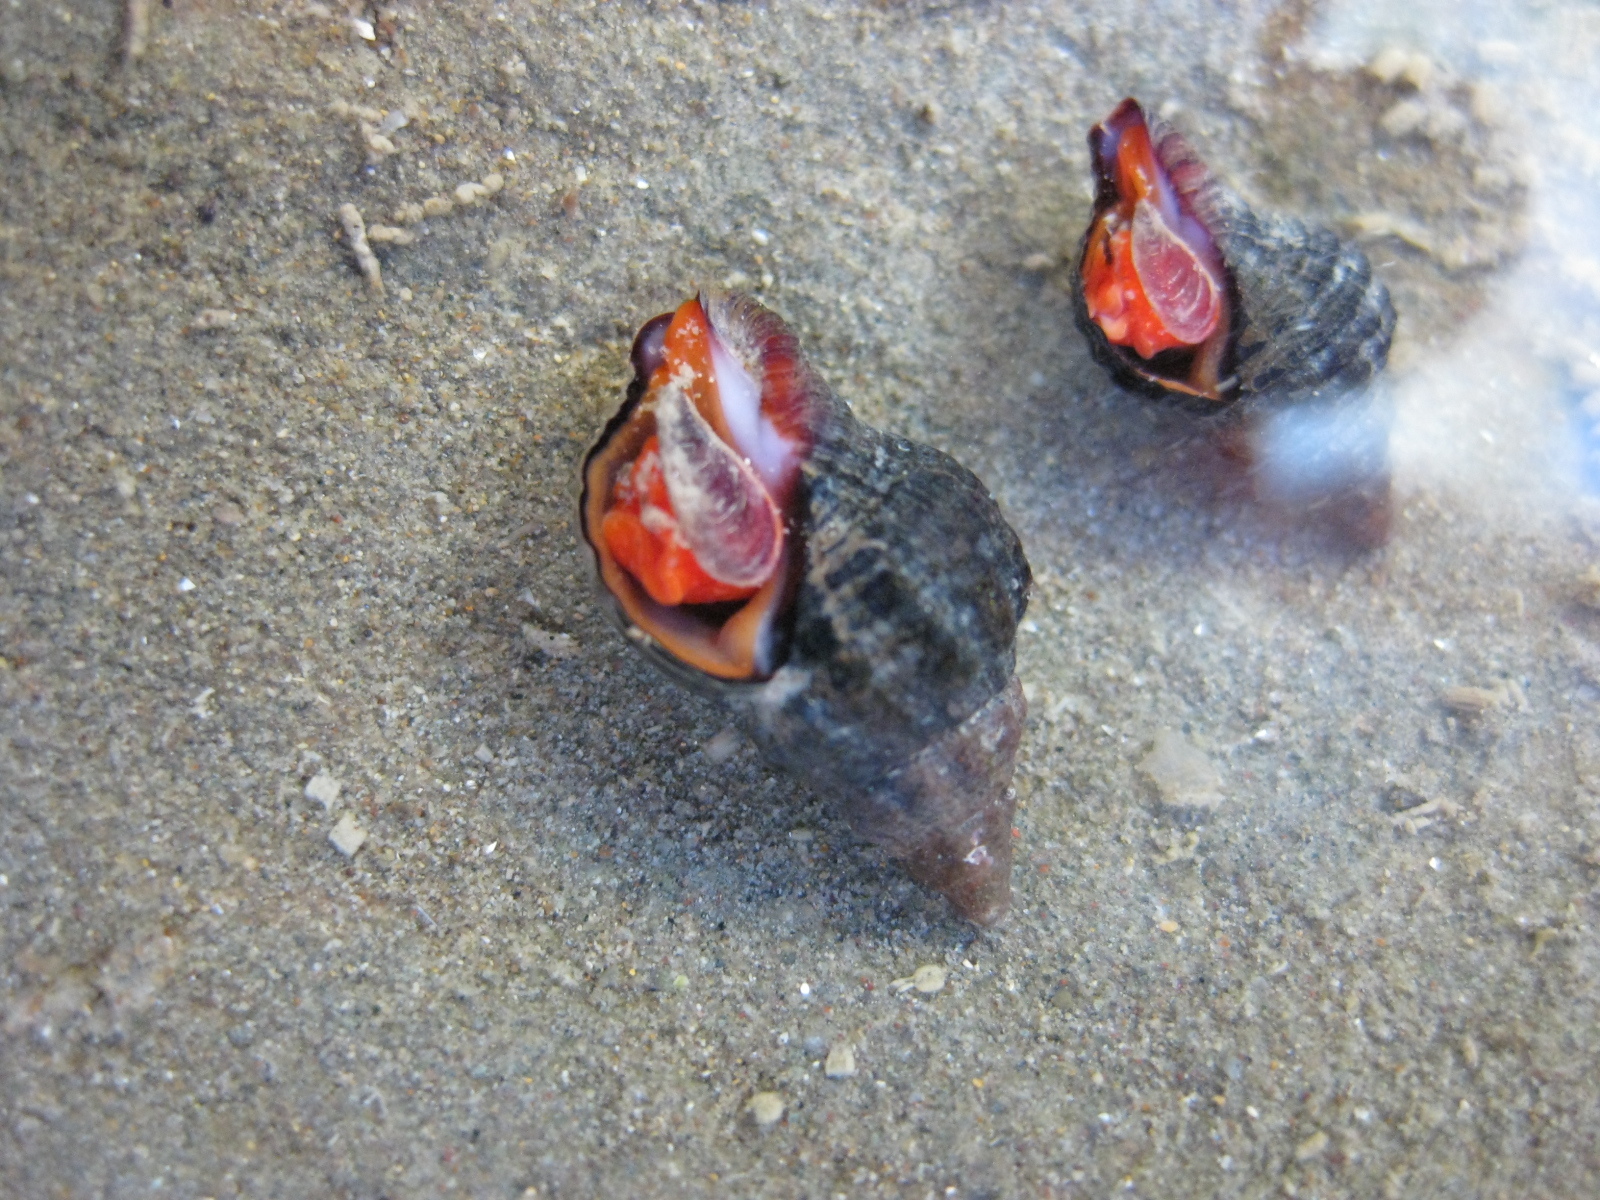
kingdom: Animalia
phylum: Mollusca
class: Gastropoda
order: Neogastropoda
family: Fasciolariidae
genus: Taron
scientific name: Taron dubius
